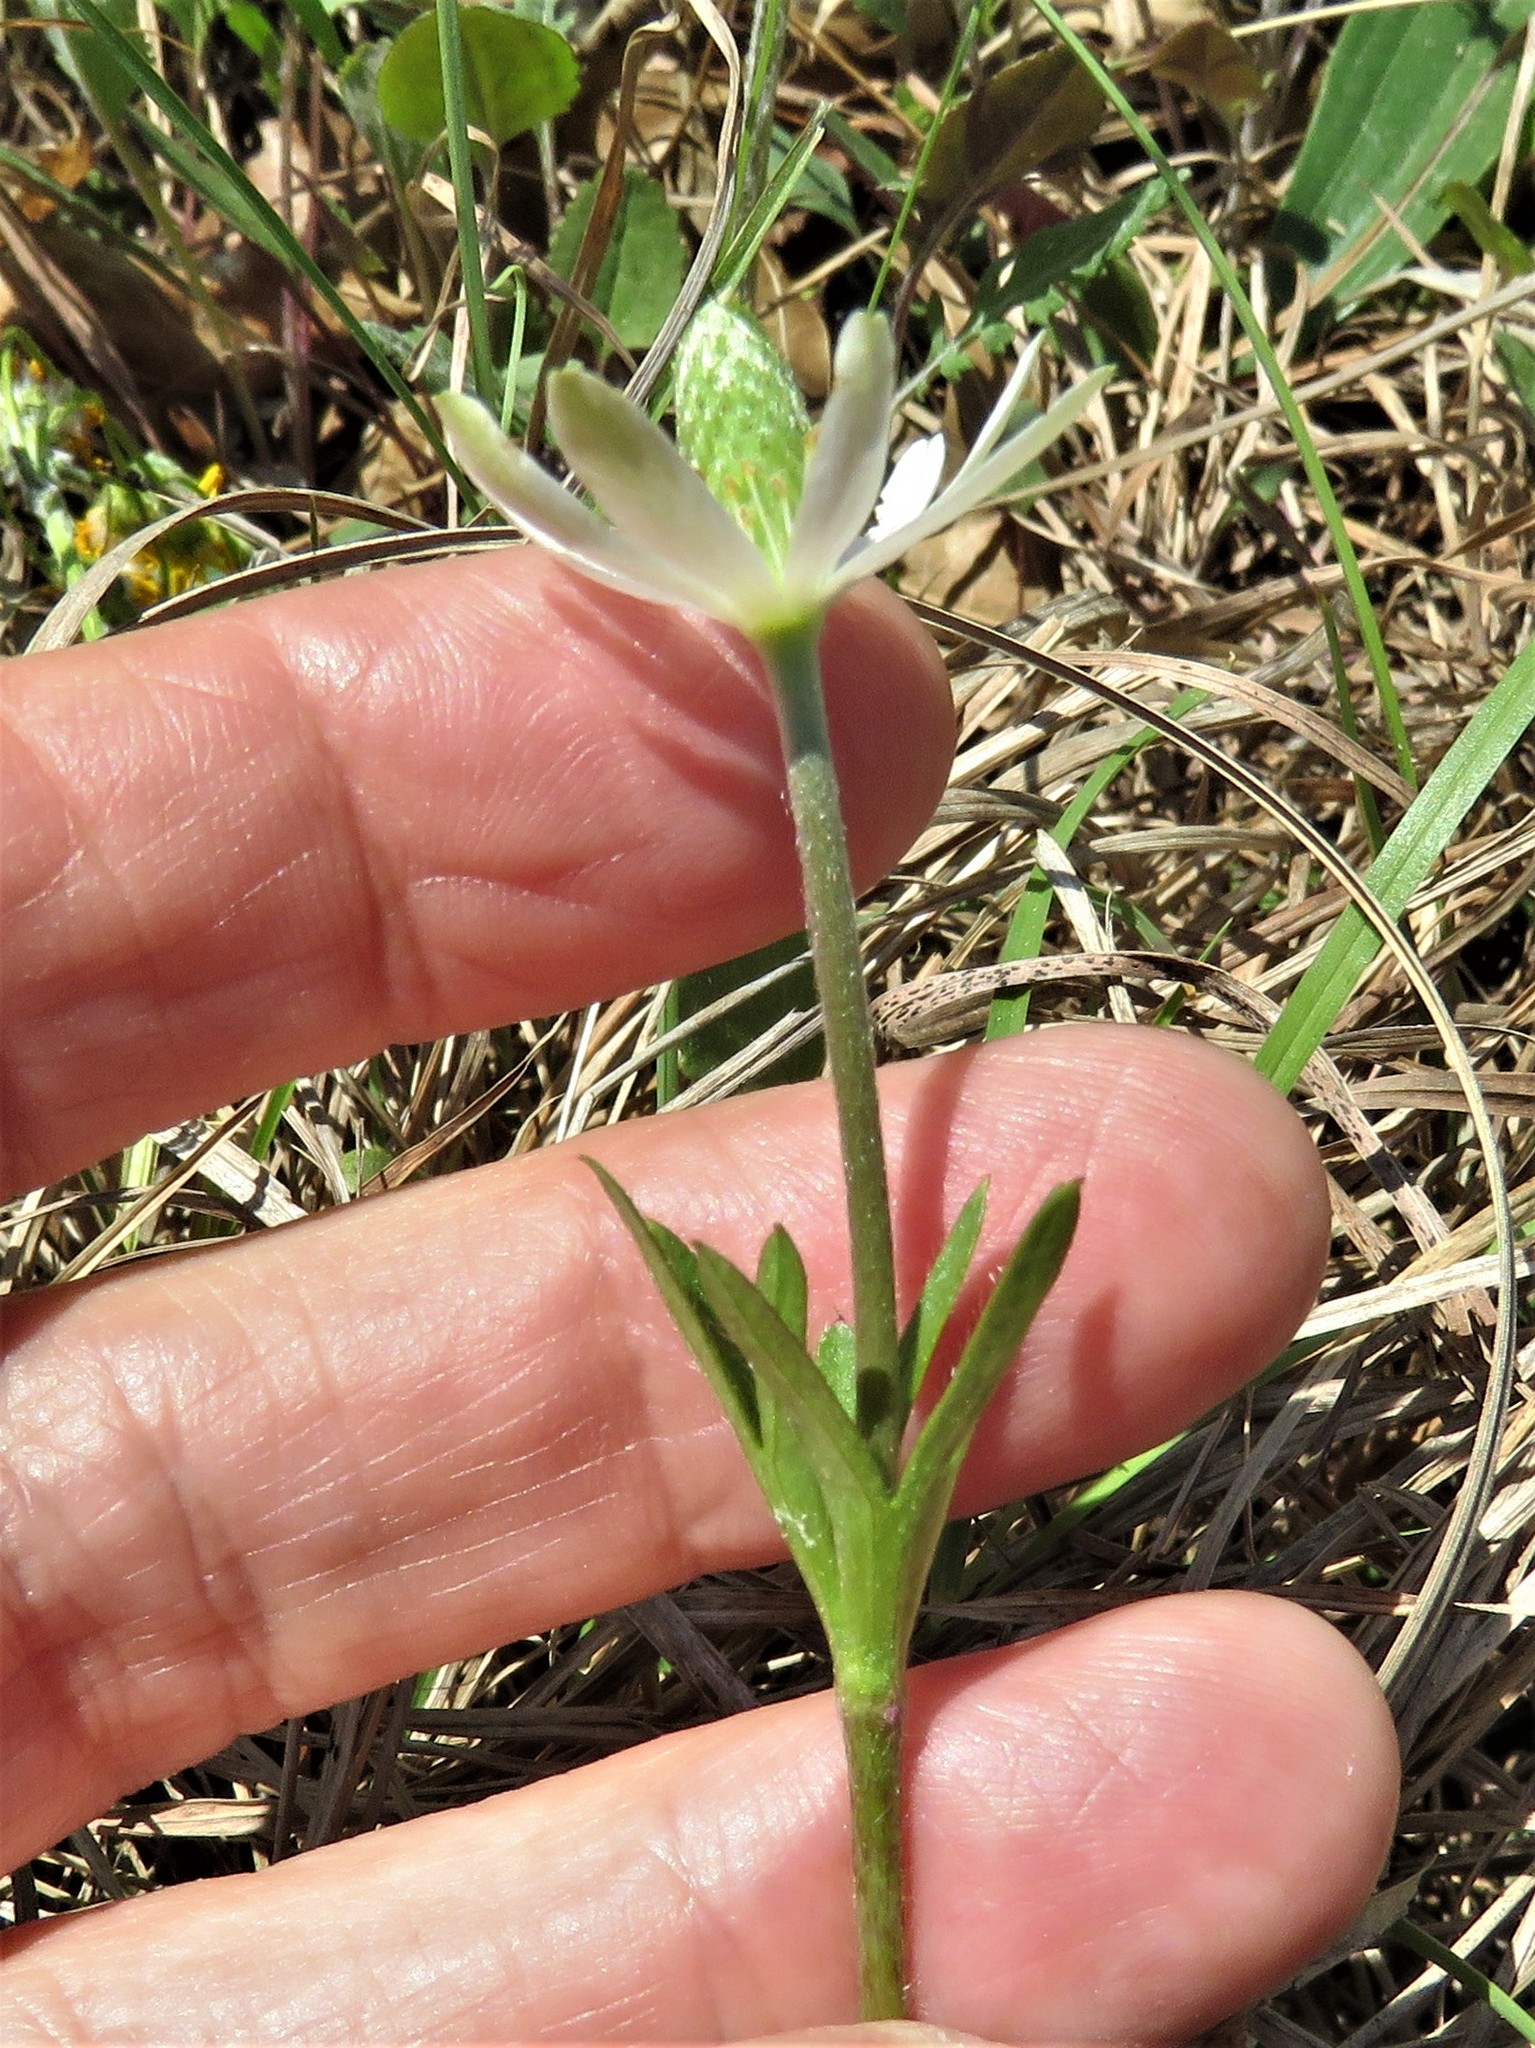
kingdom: Plantae
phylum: Tracheophyta
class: Magnoliopsida
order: Ranunculales
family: Ranunculaceae
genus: Anemone
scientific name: Anemone berlandieri
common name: Ten-petal anemone
